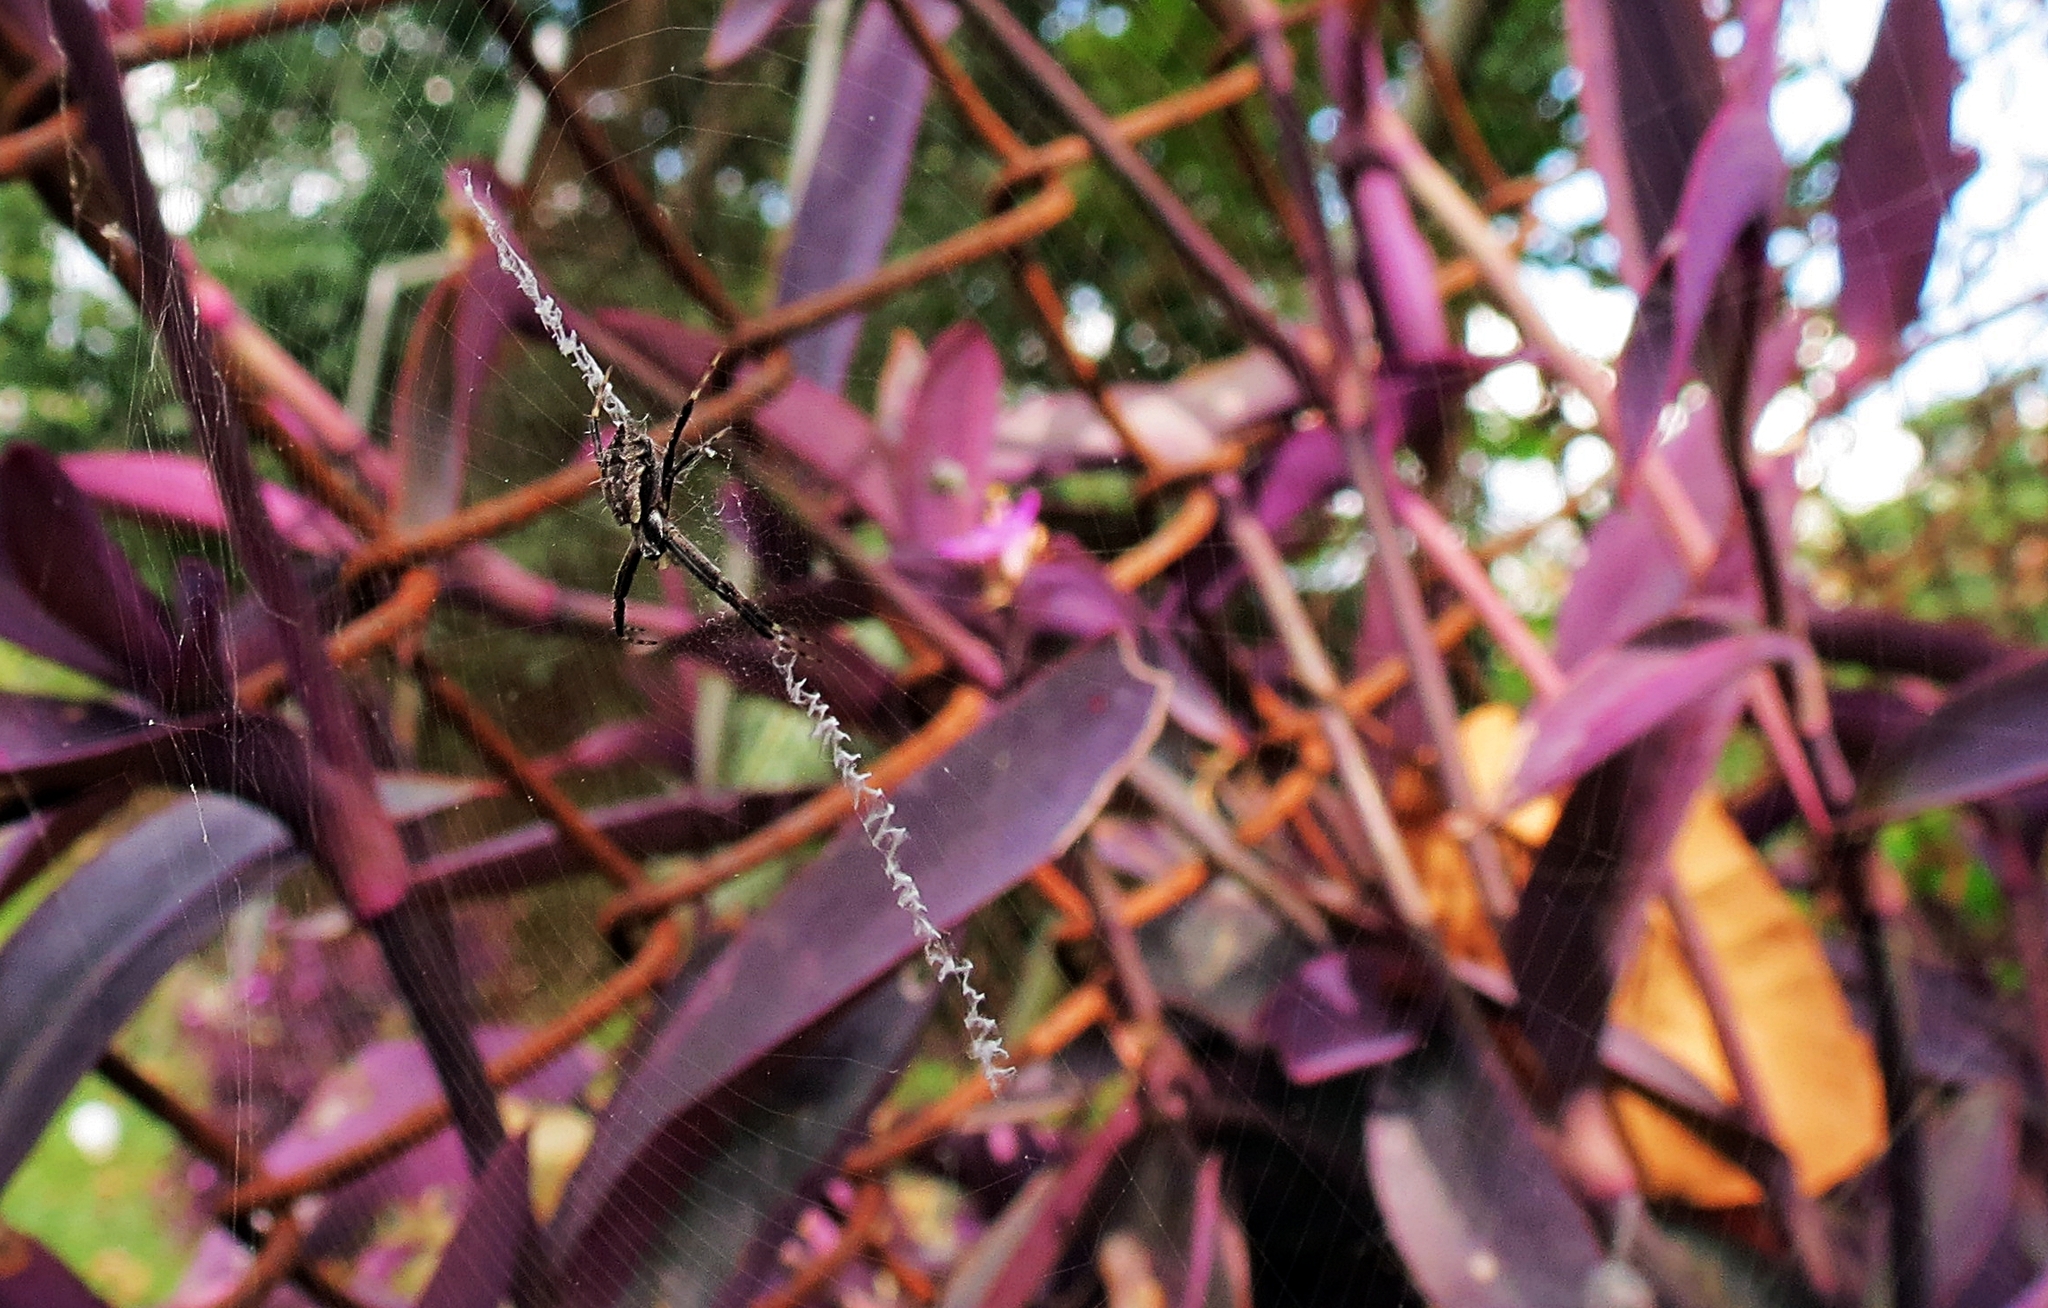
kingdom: Animalia
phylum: Arthropoda
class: Arachnida
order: Araneae
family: Araneidae
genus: Argiope
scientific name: Argiope argentata
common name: Orb weavers
